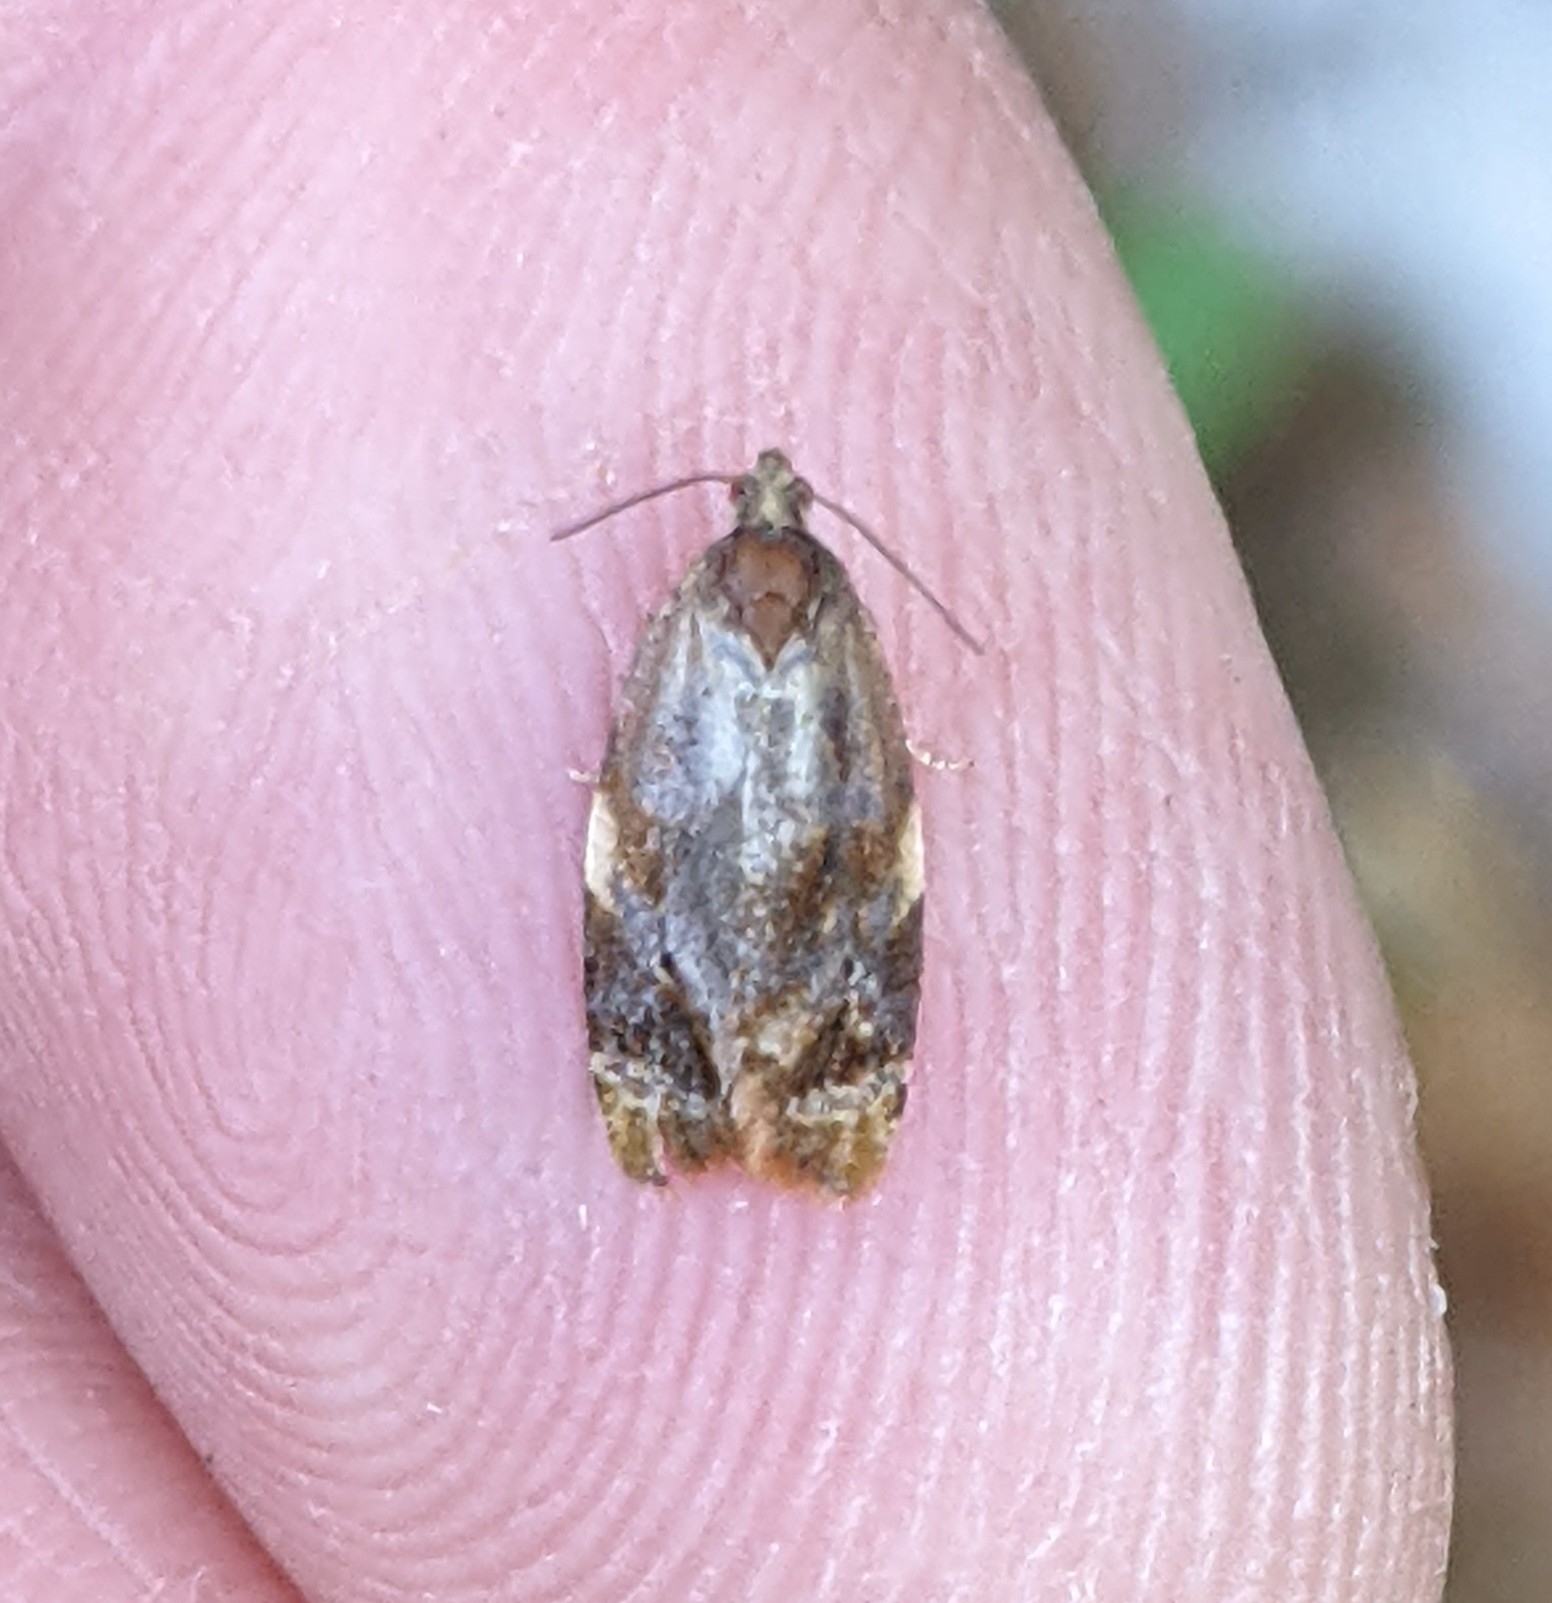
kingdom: Animalia
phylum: Arthropoda
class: Insecta
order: Lepidoptera
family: Tortricidae
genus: Ditula
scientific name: Ditula angustiorana
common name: Red-barred tortrix
